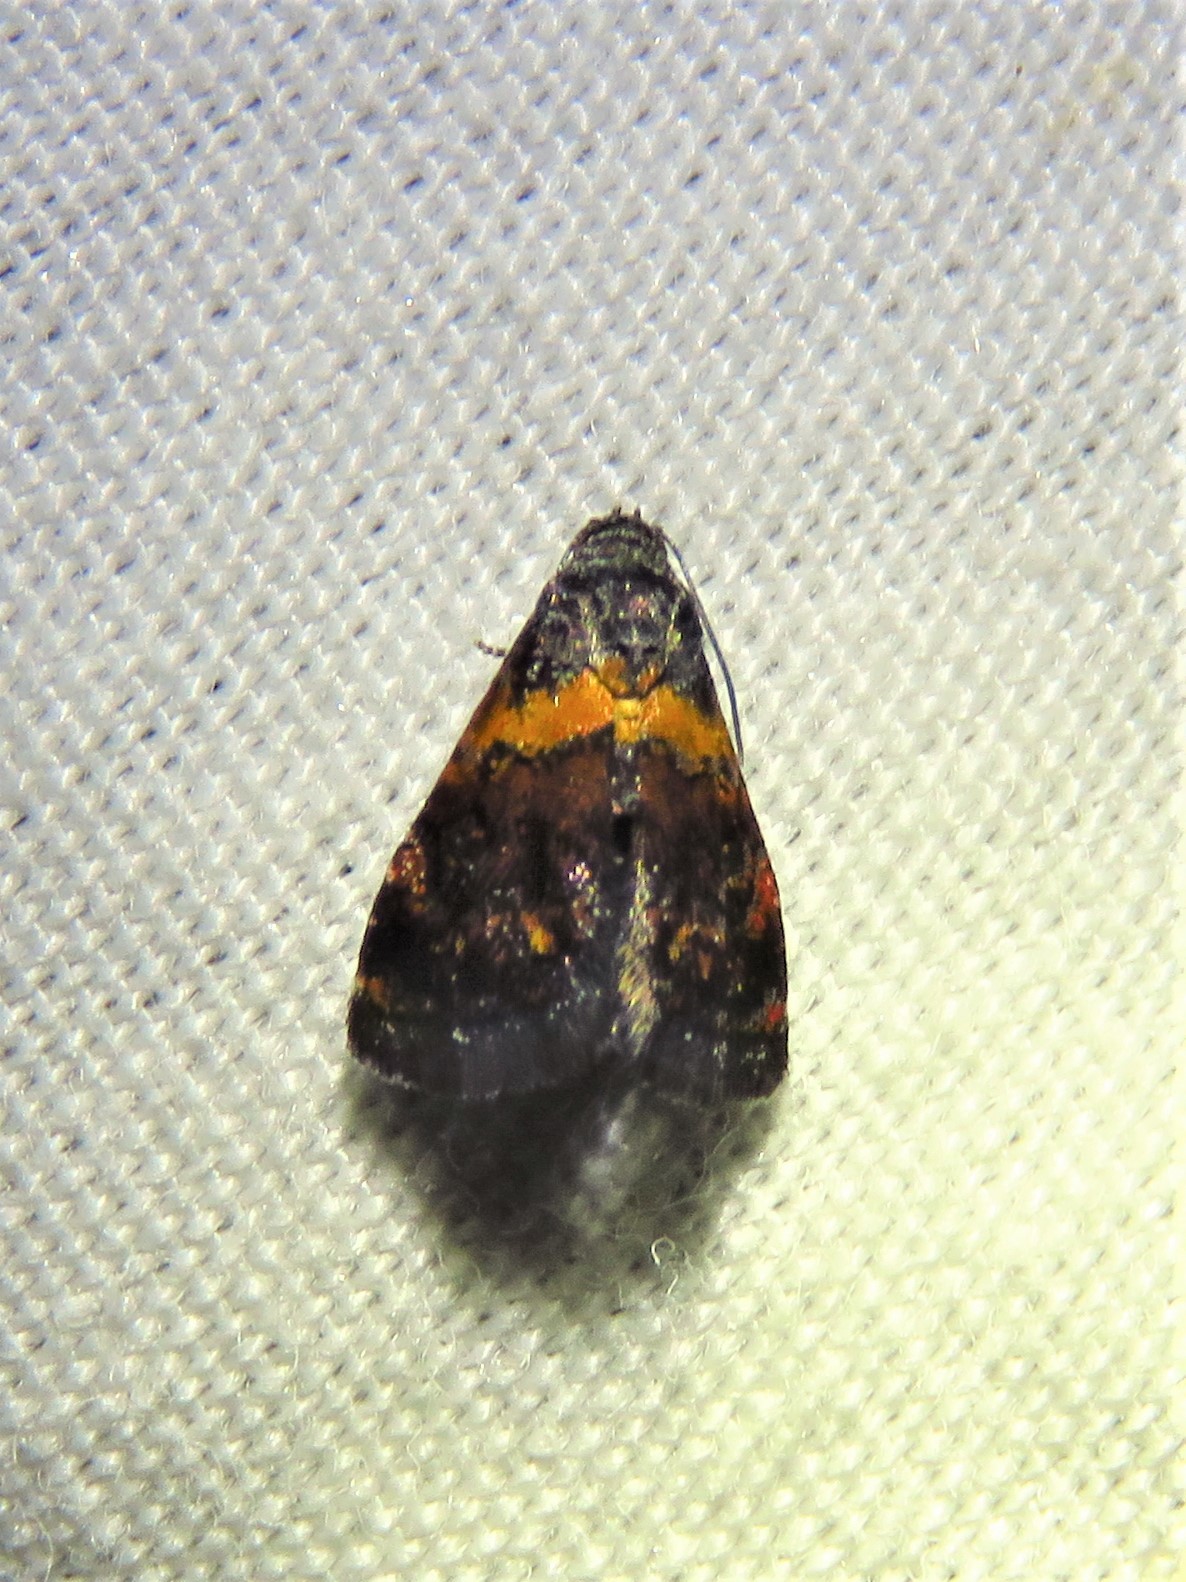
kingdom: Animalia
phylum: Arthropoda
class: Insecta
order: Lepidoptera
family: Noctuidae
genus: Tripudia
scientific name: Tripudia flavofasciata
